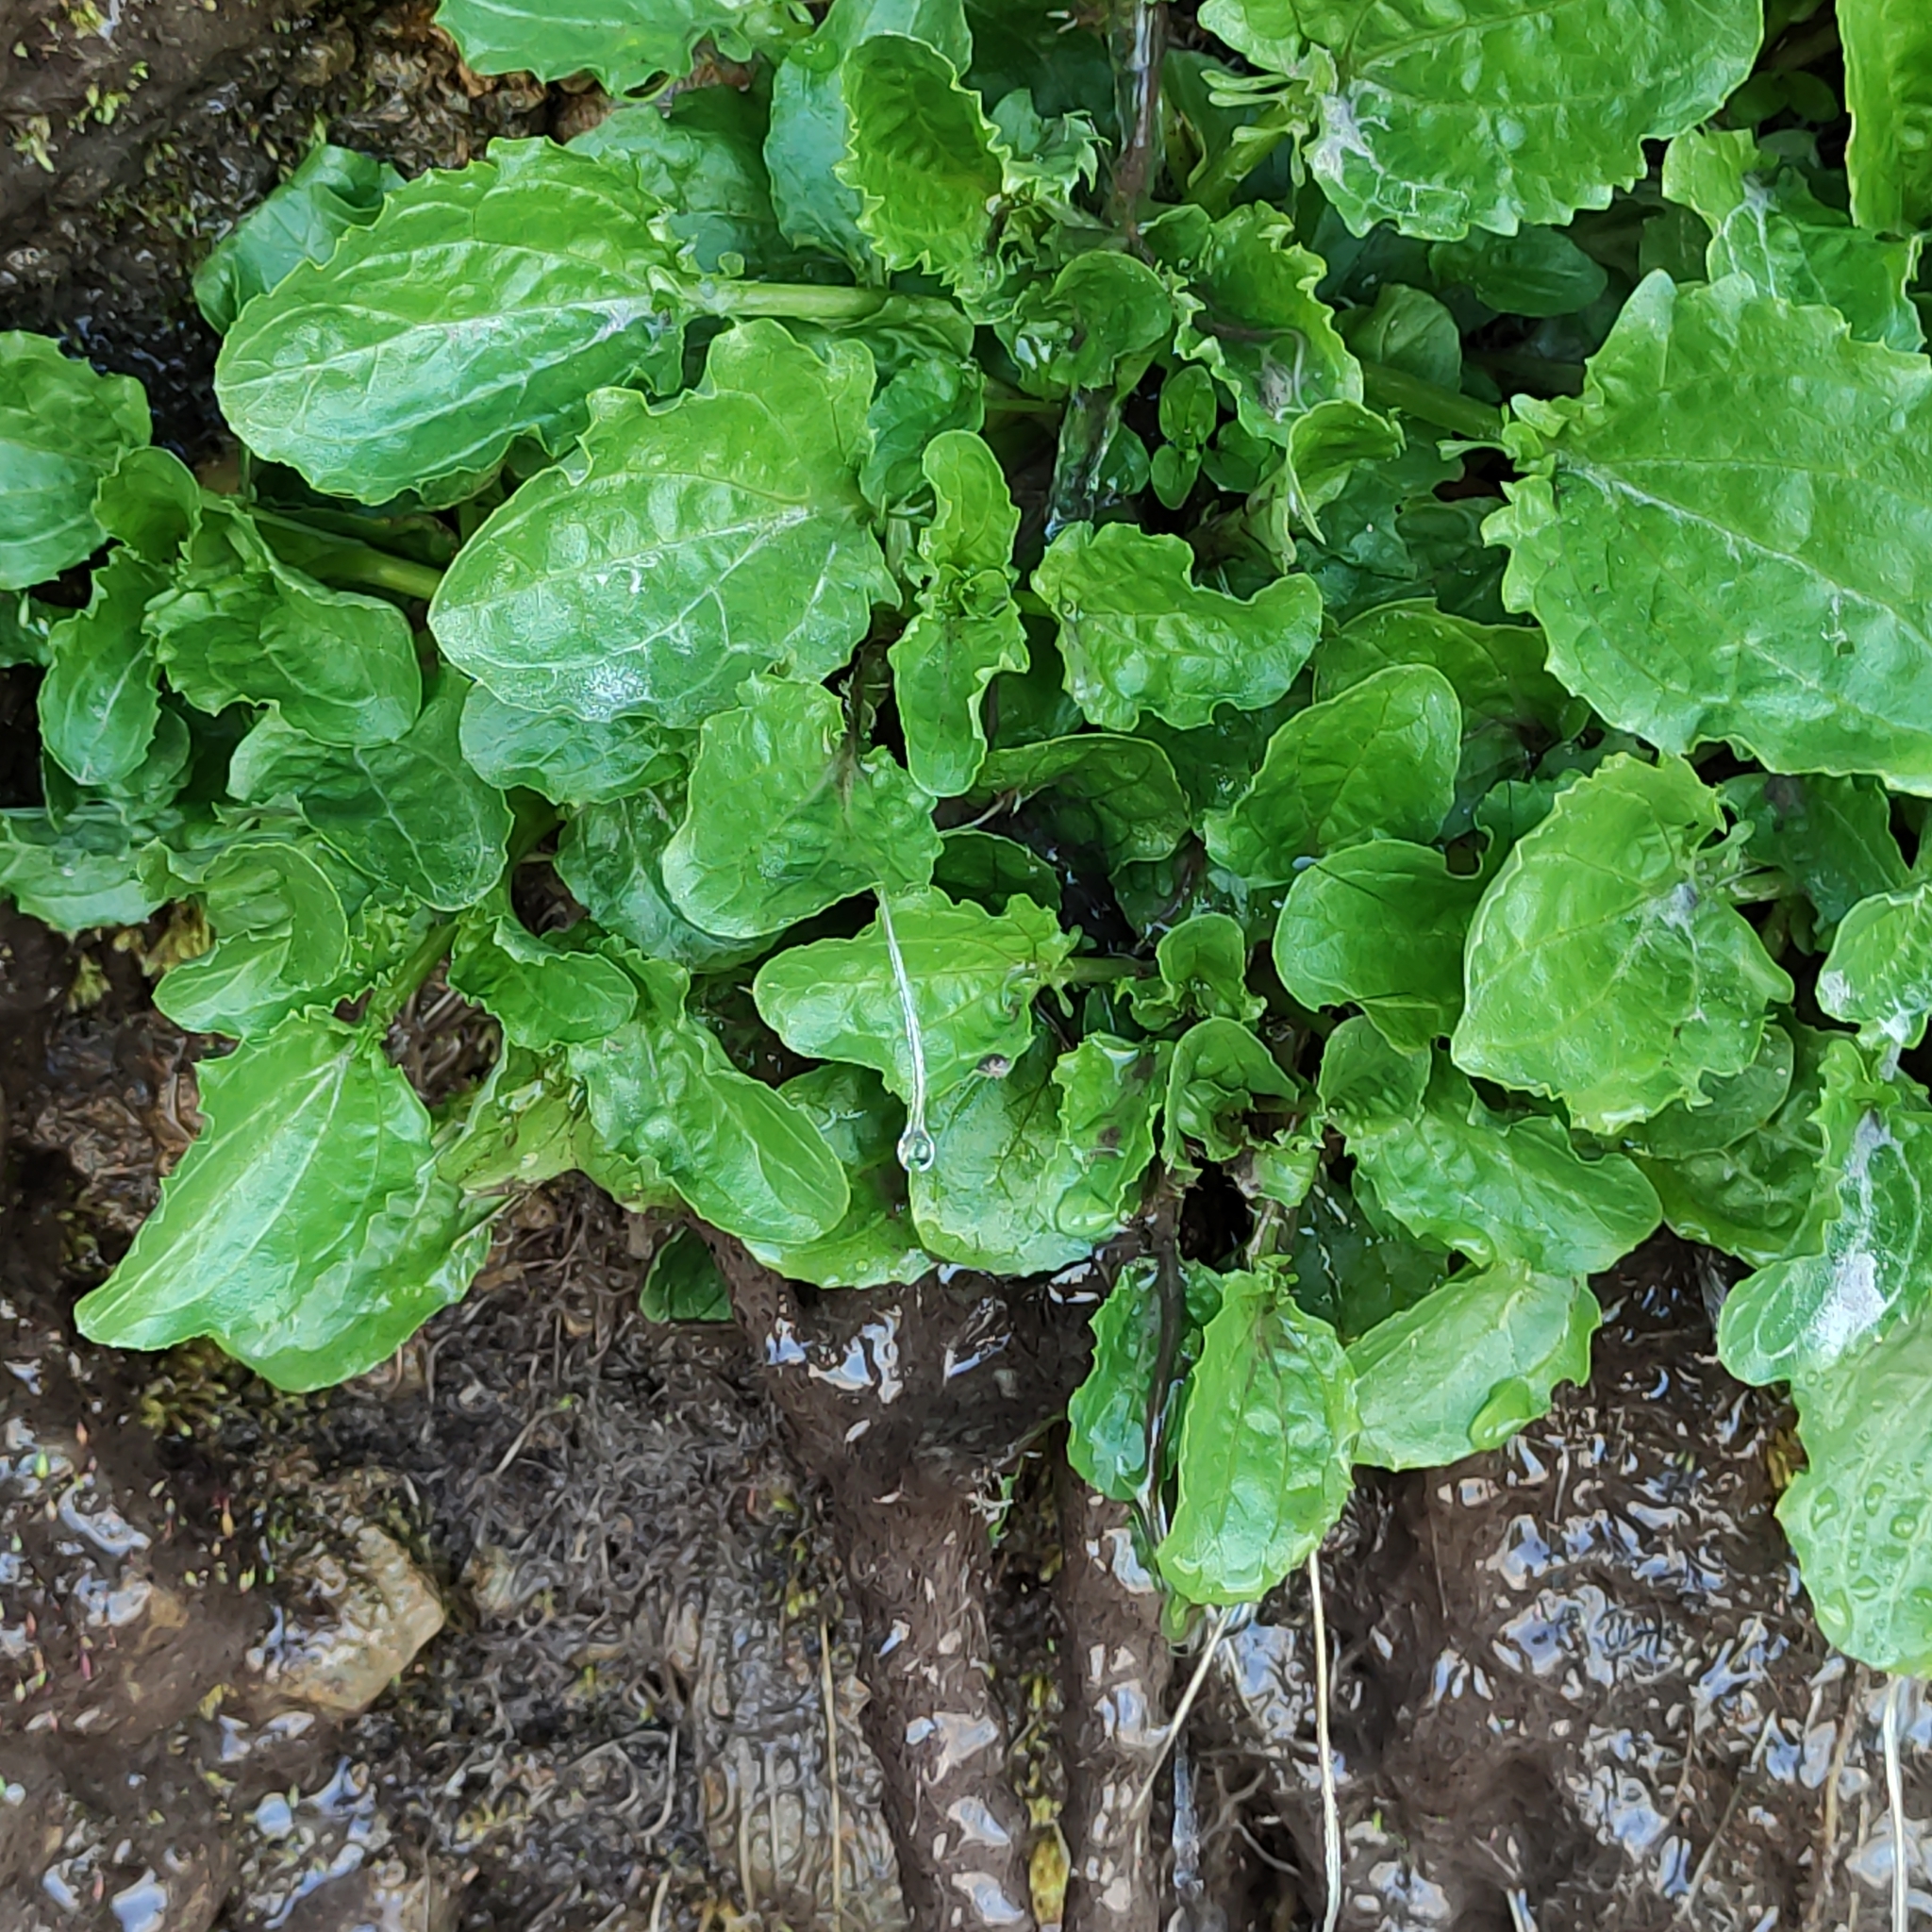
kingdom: Plantae
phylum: Tracheophyta
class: Magnoliopsida
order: Lamiales
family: Phrymaceae
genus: Erythranthe
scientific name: Erythranthe guttata
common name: Monkeyflower
